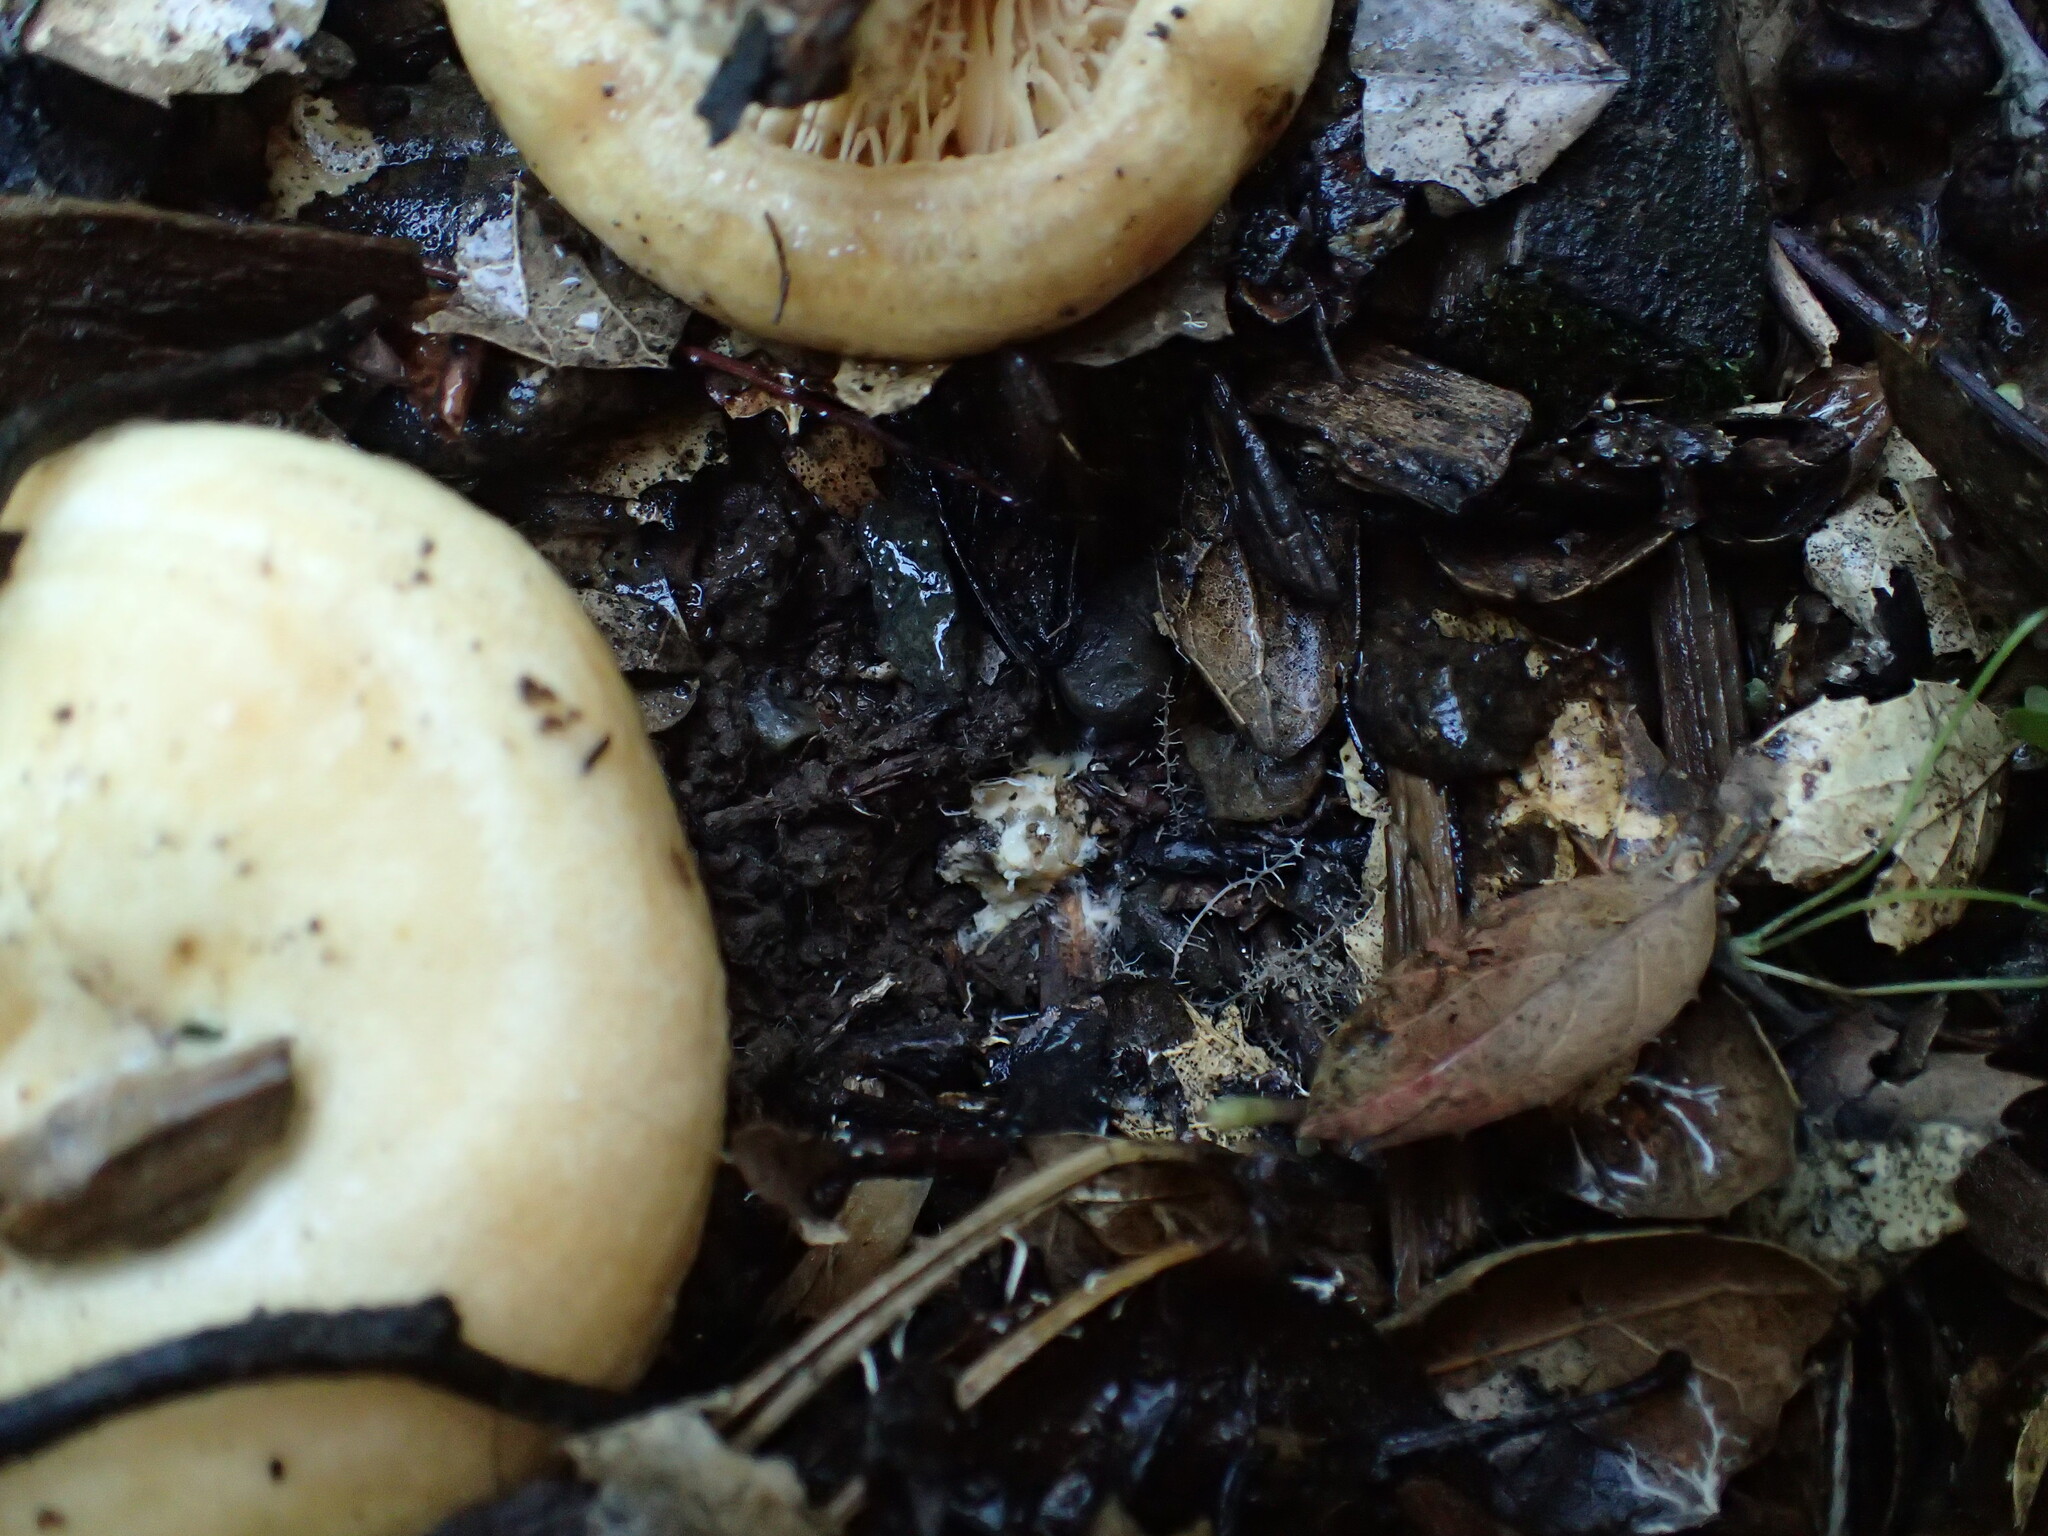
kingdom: Fungi
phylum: Basidiomycota
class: Agaricomycetes
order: Russulales
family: Russulaceae
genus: Lactarius
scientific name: Lactarius alnicola
